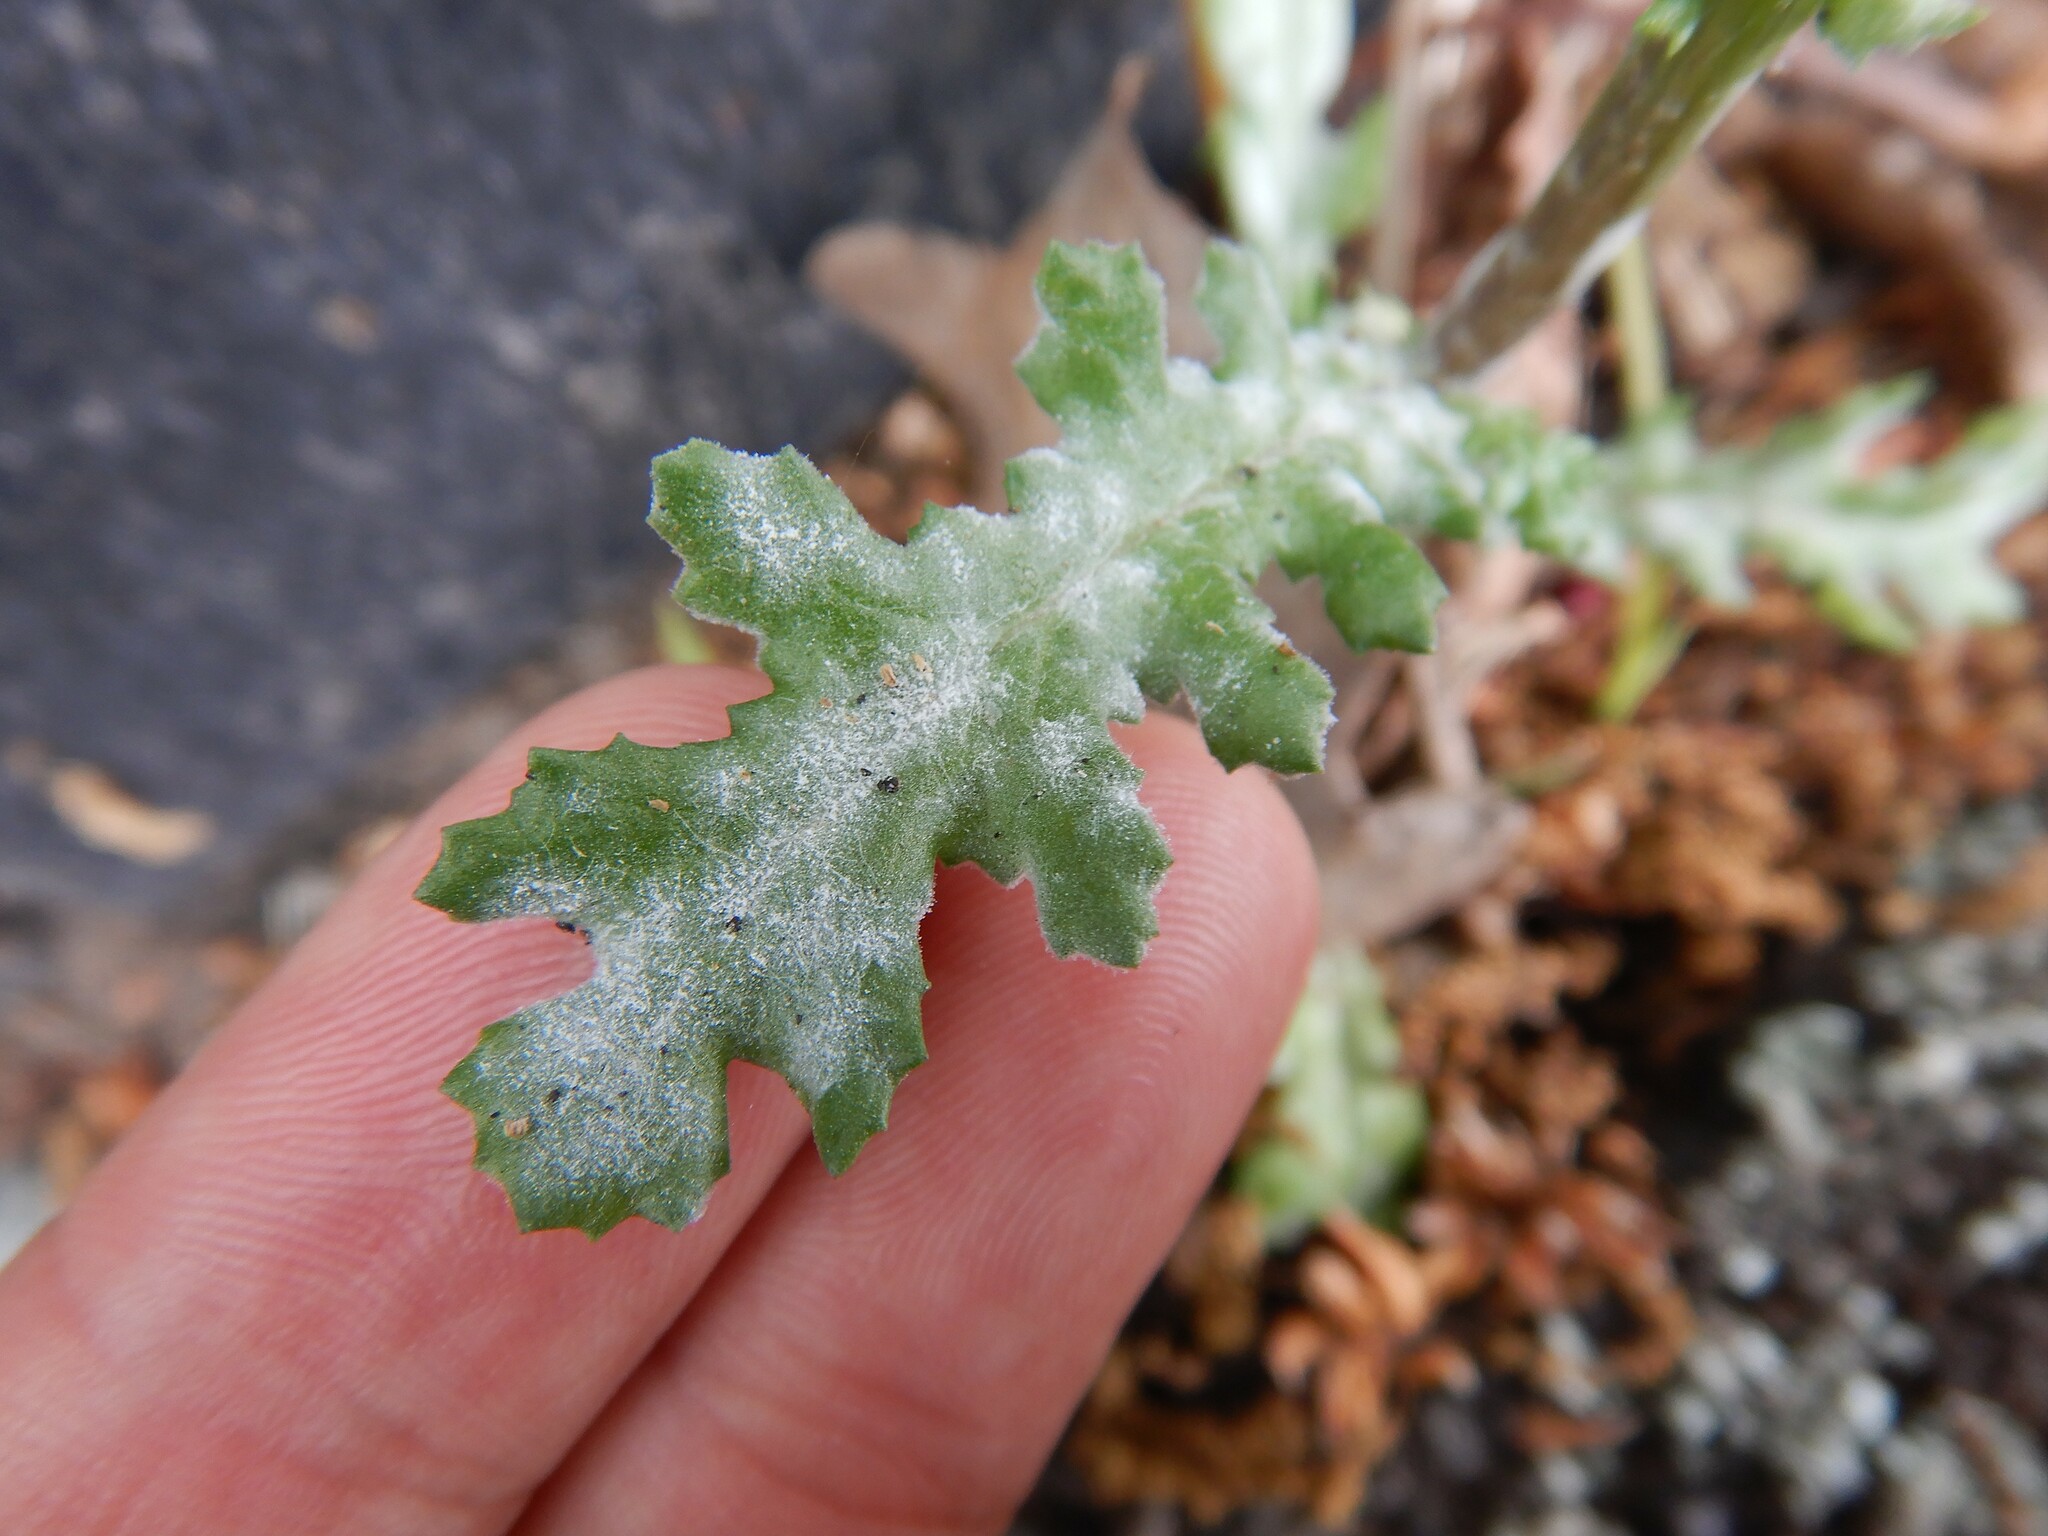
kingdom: Fungi
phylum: Ascomycota
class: Leotiomycetes
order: Helotiales
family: Erysiphaceae
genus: Golovinomyces
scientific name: Golovinomyces fischeri
